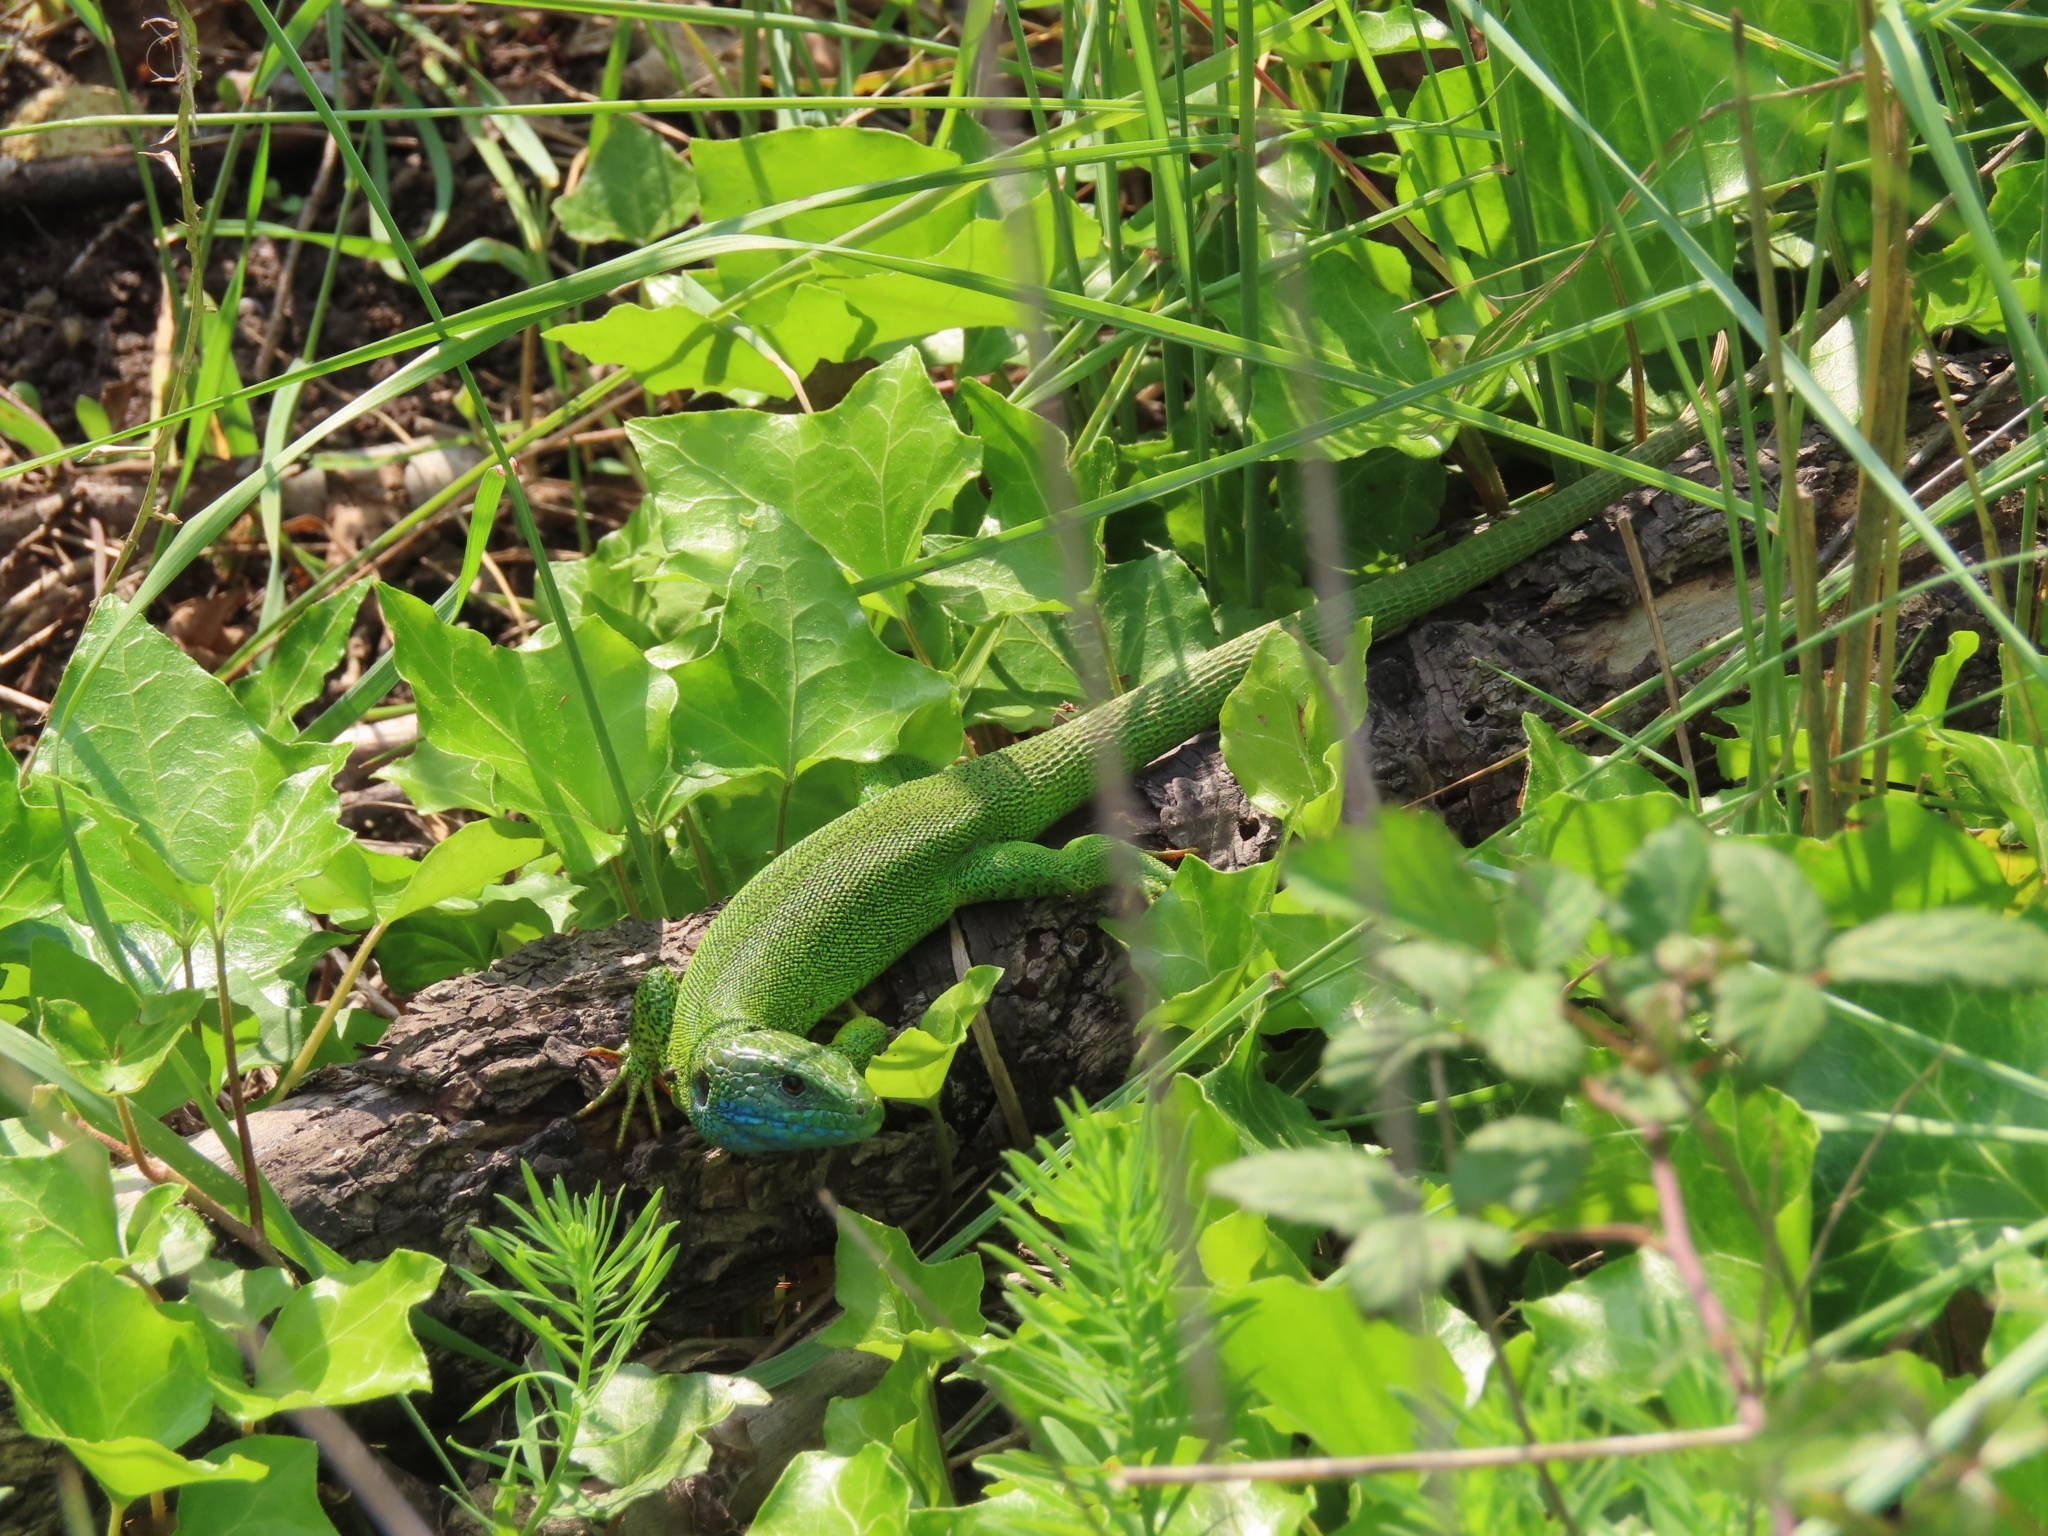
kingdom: Animalia
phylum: Chordata
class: Squamata
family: Lacertidae
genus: Lacerta
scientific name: Lacerta bilineata
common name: Western green lizard
